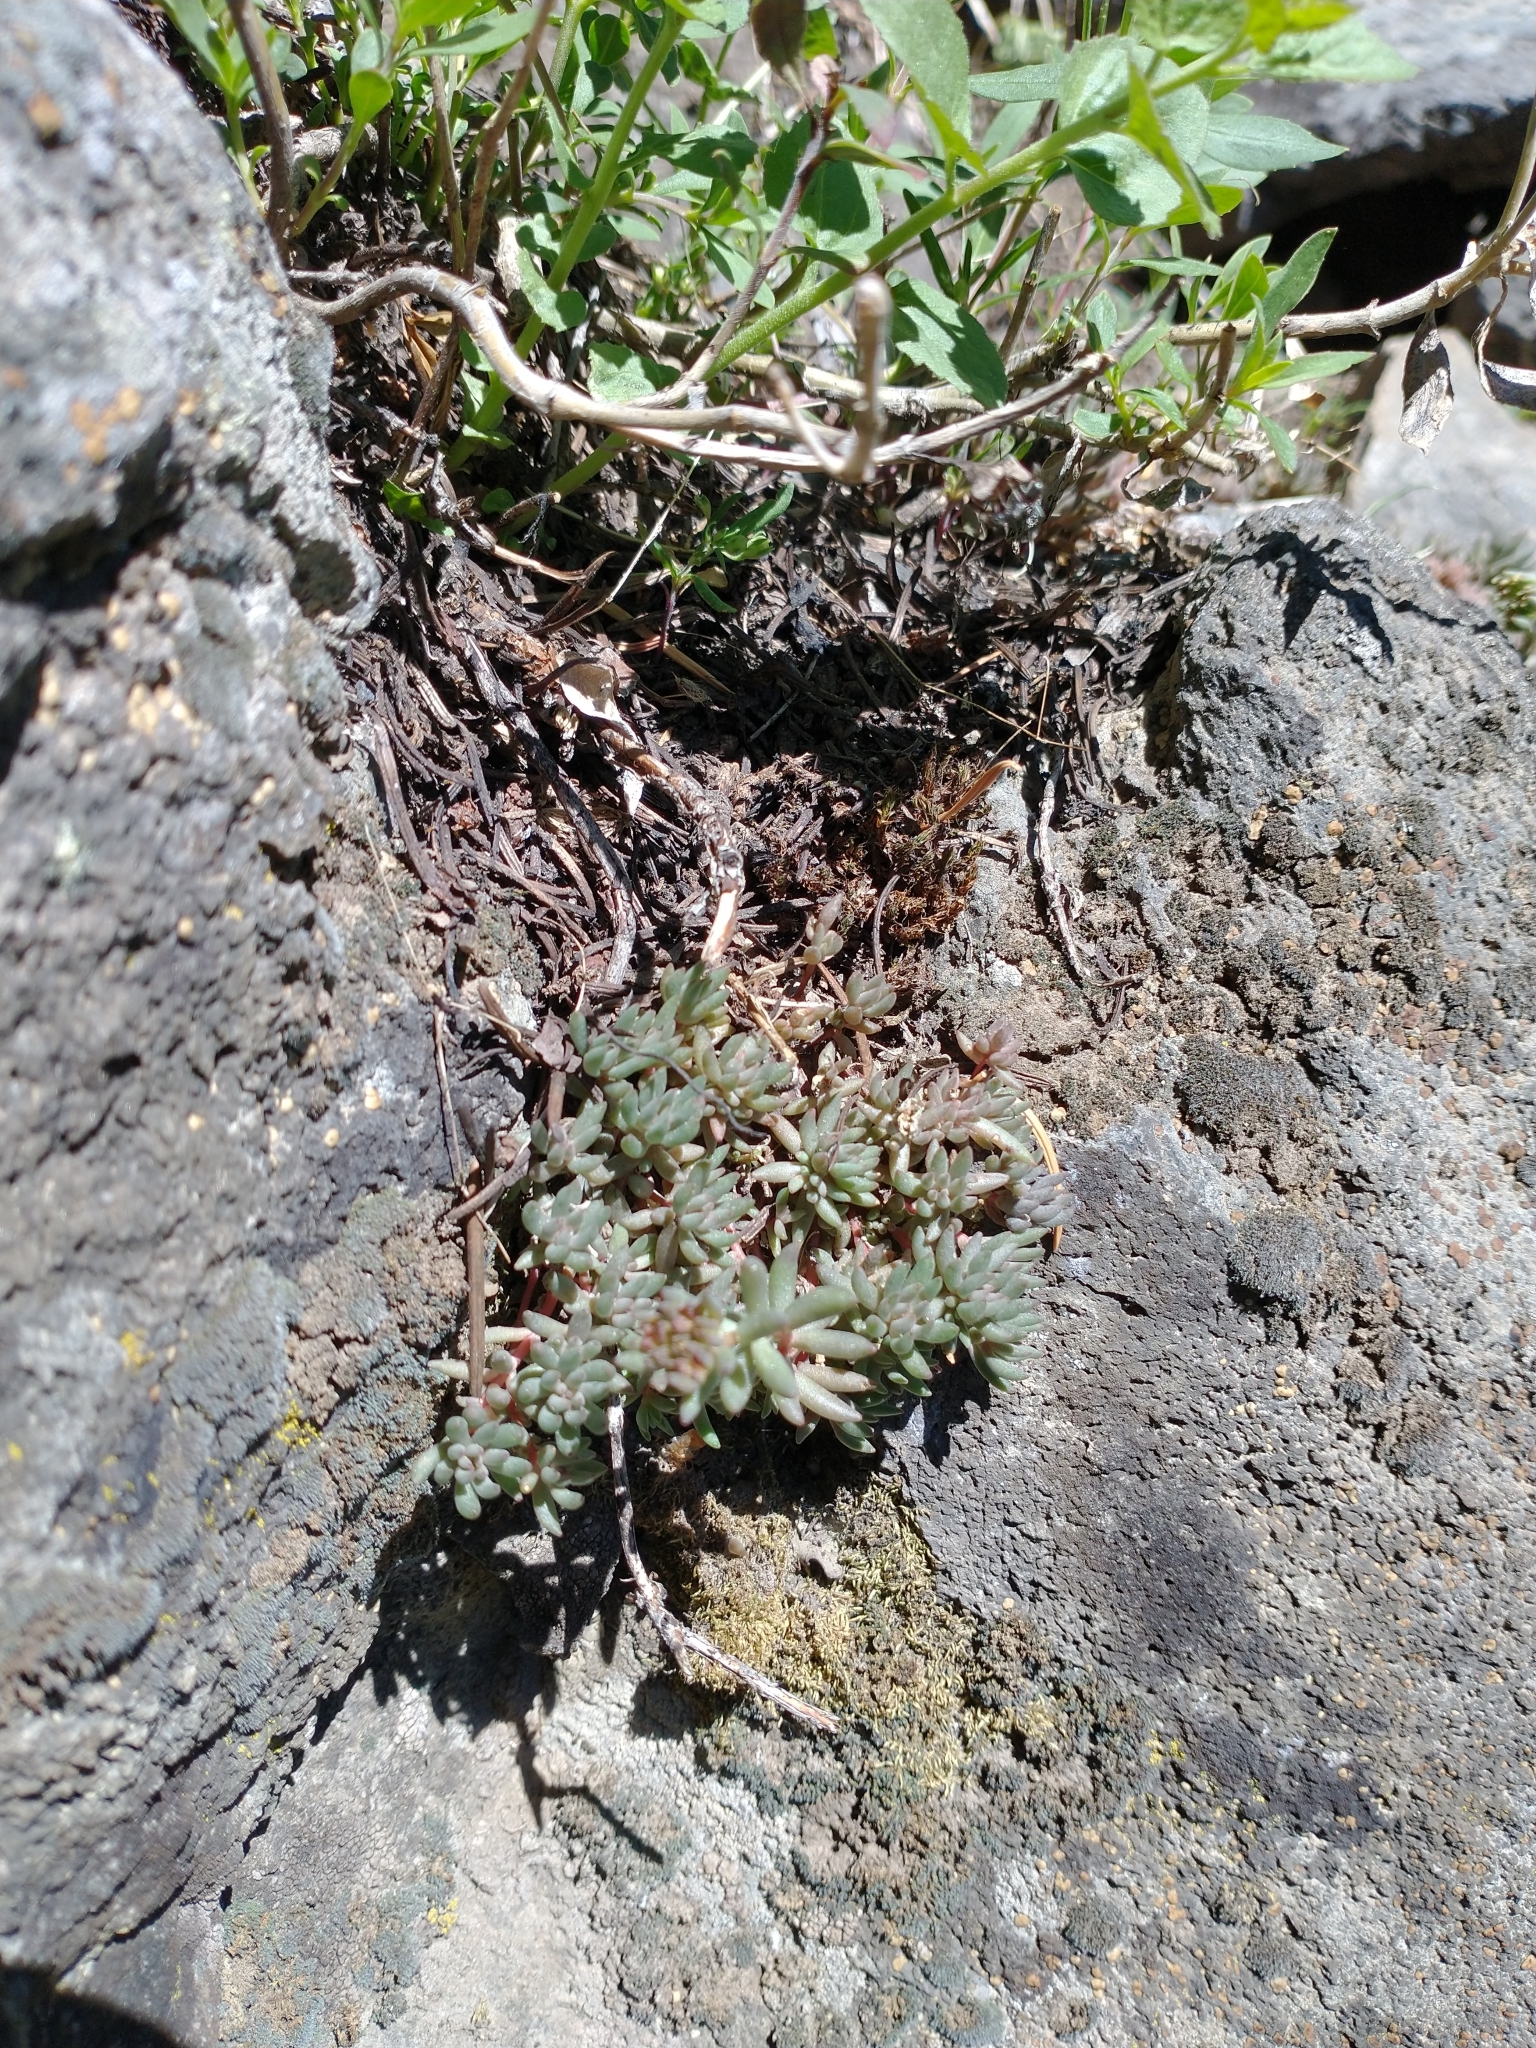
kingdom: Plantae
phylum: Tracheophyta
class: Magnoliopsida
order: Saxifragales
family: Crassulaceae
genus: Sedum
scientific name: Sedum lanceolatum
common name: Common stonecrop
